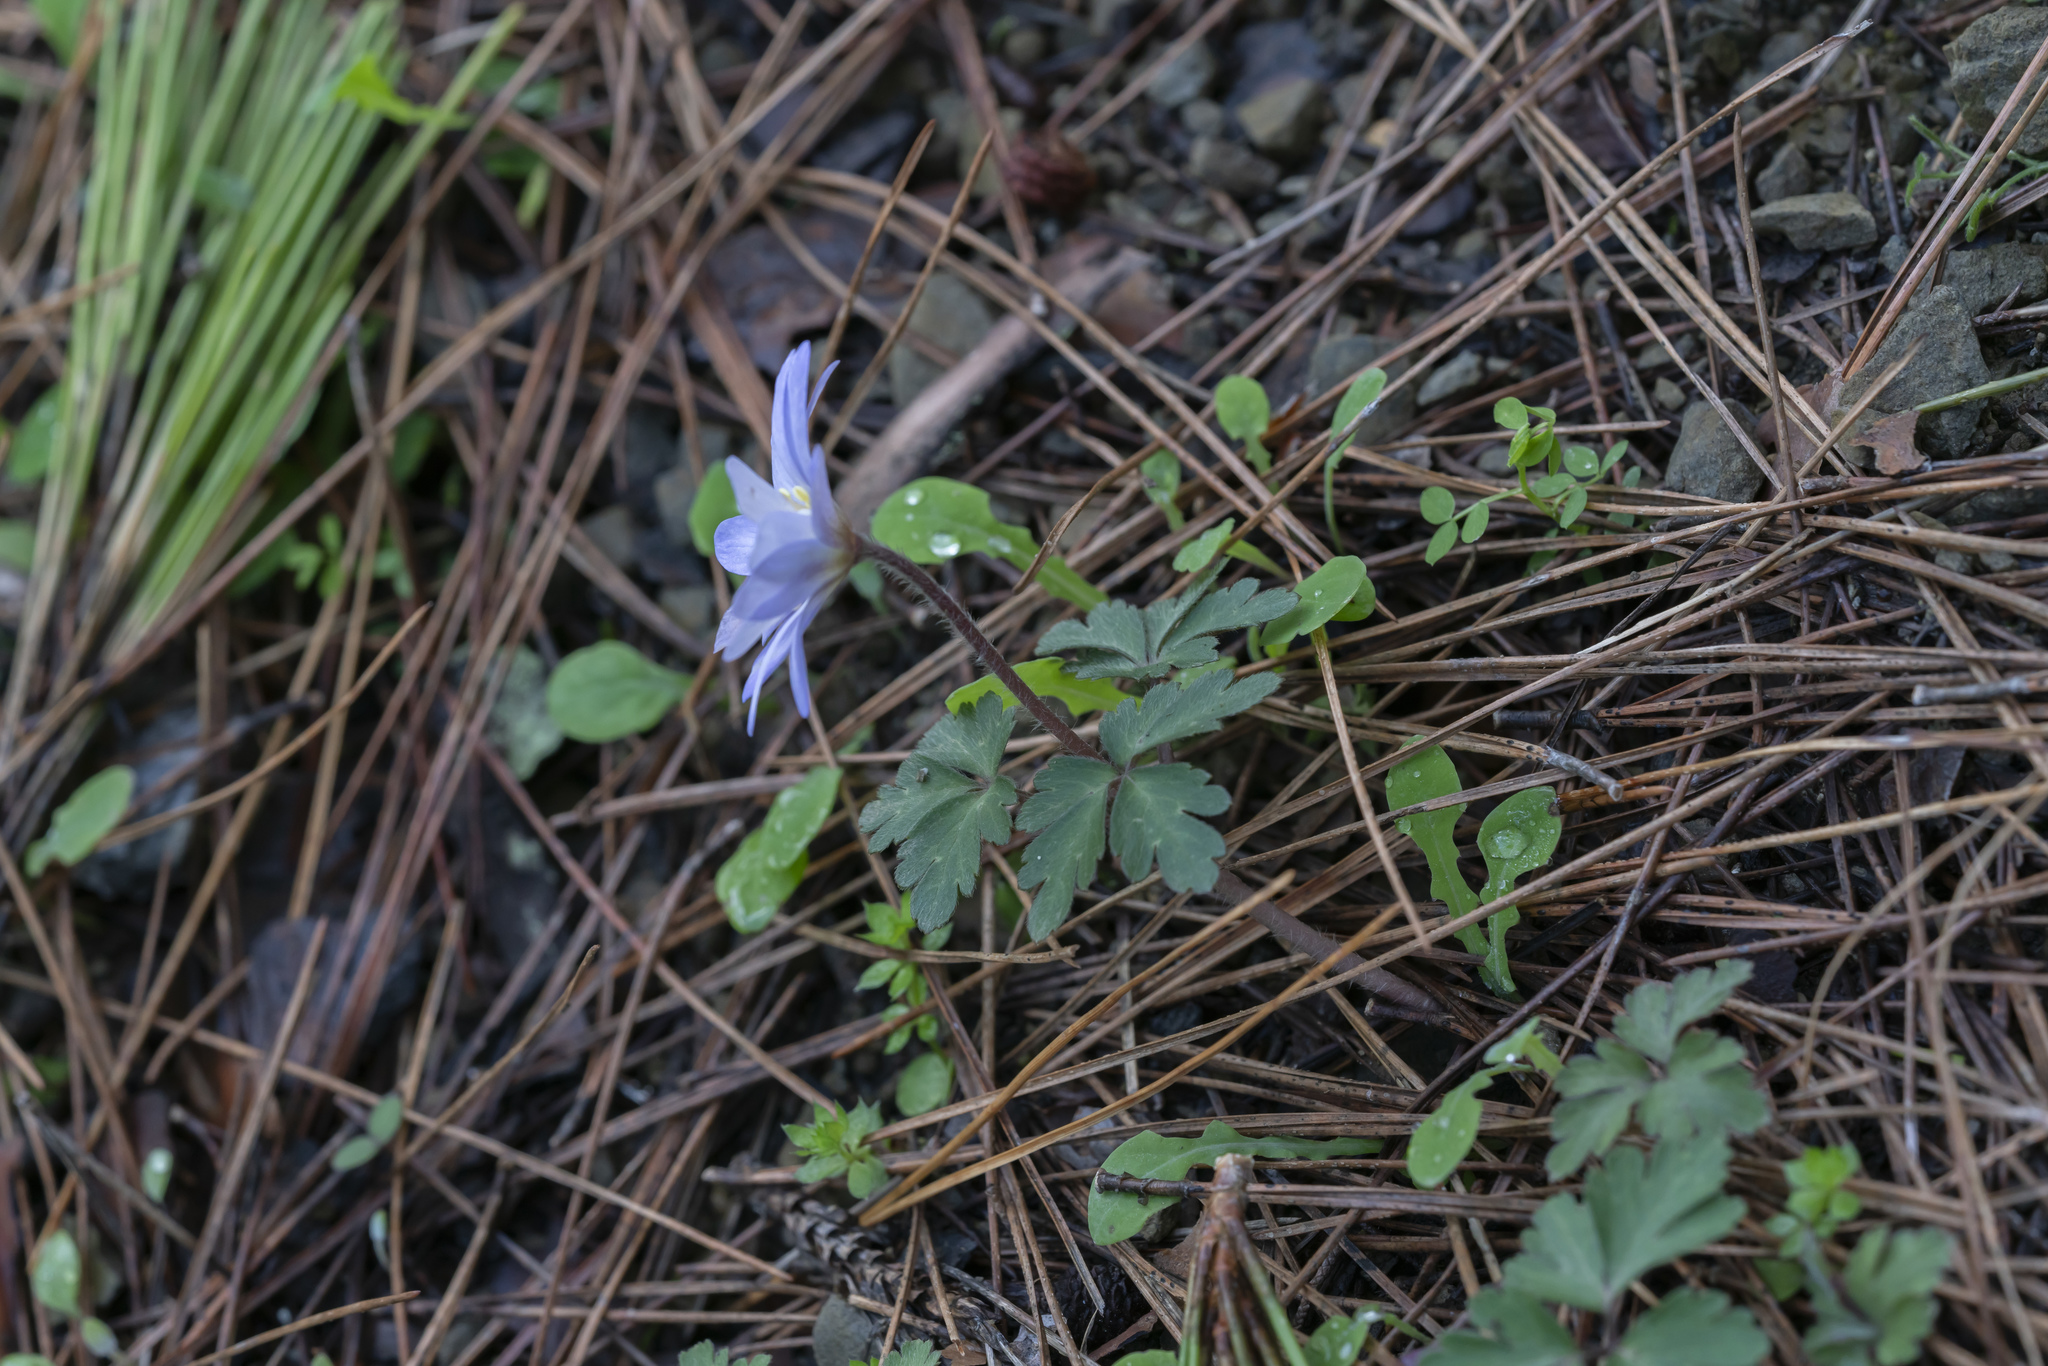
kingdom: Plantae
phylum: Tracheophyta
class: Magnoliopsida
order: Ranunculales
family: Ranunculaceae
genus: Anemone
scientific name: Anemone blanda
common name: Balkan anemone
